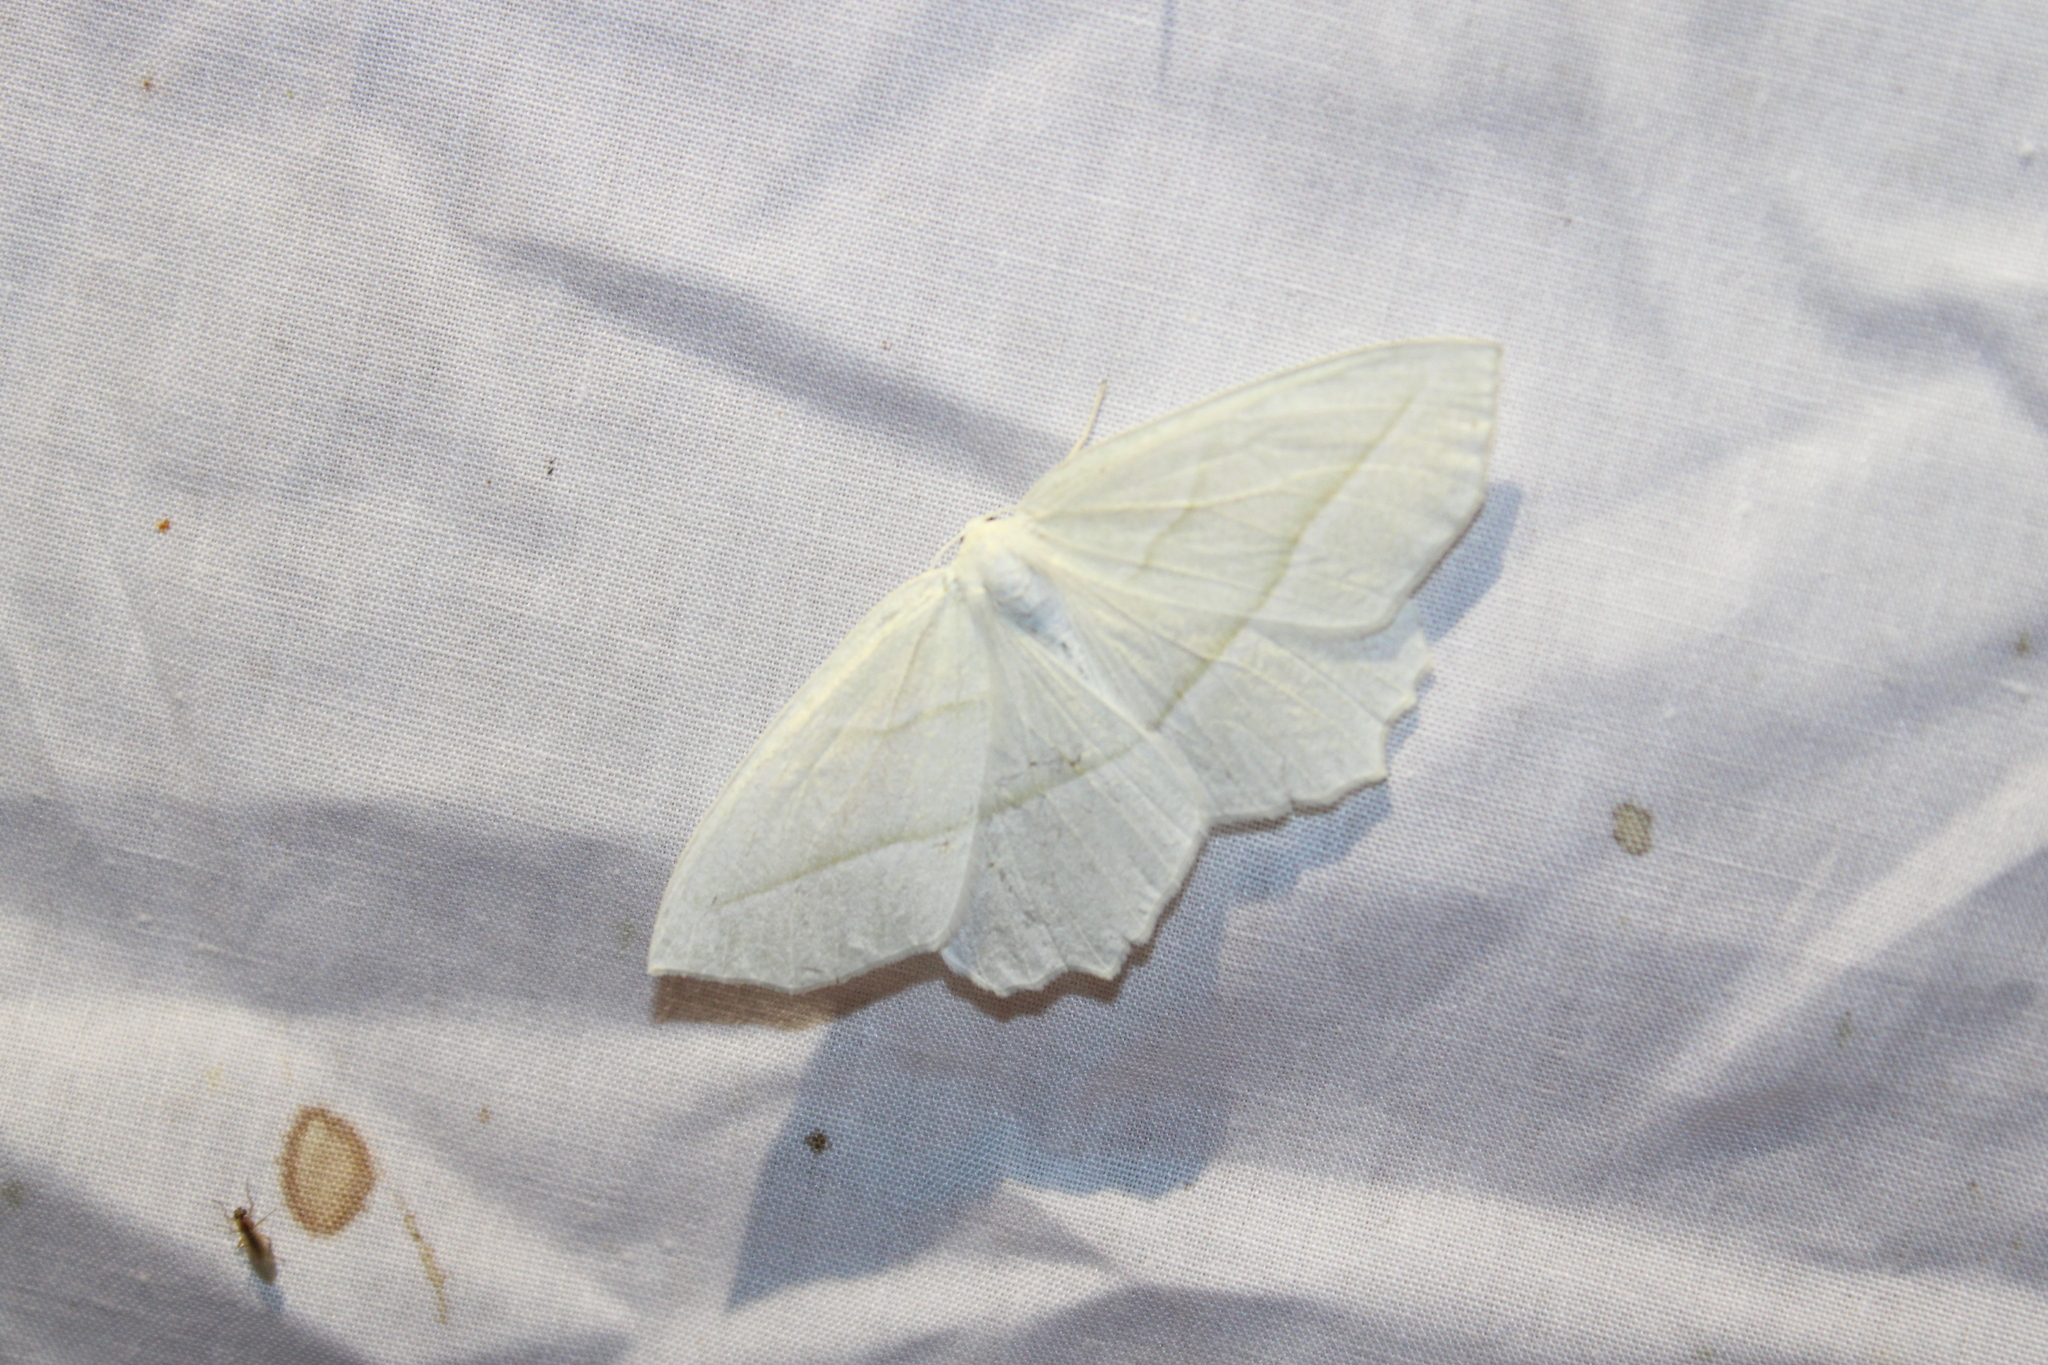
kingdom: Animalia
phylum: Arthropoda
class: Insecta
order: Lepidoptera
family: Geometridae
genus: Campaea
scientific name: Campaea perlata
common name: Fringed looper
